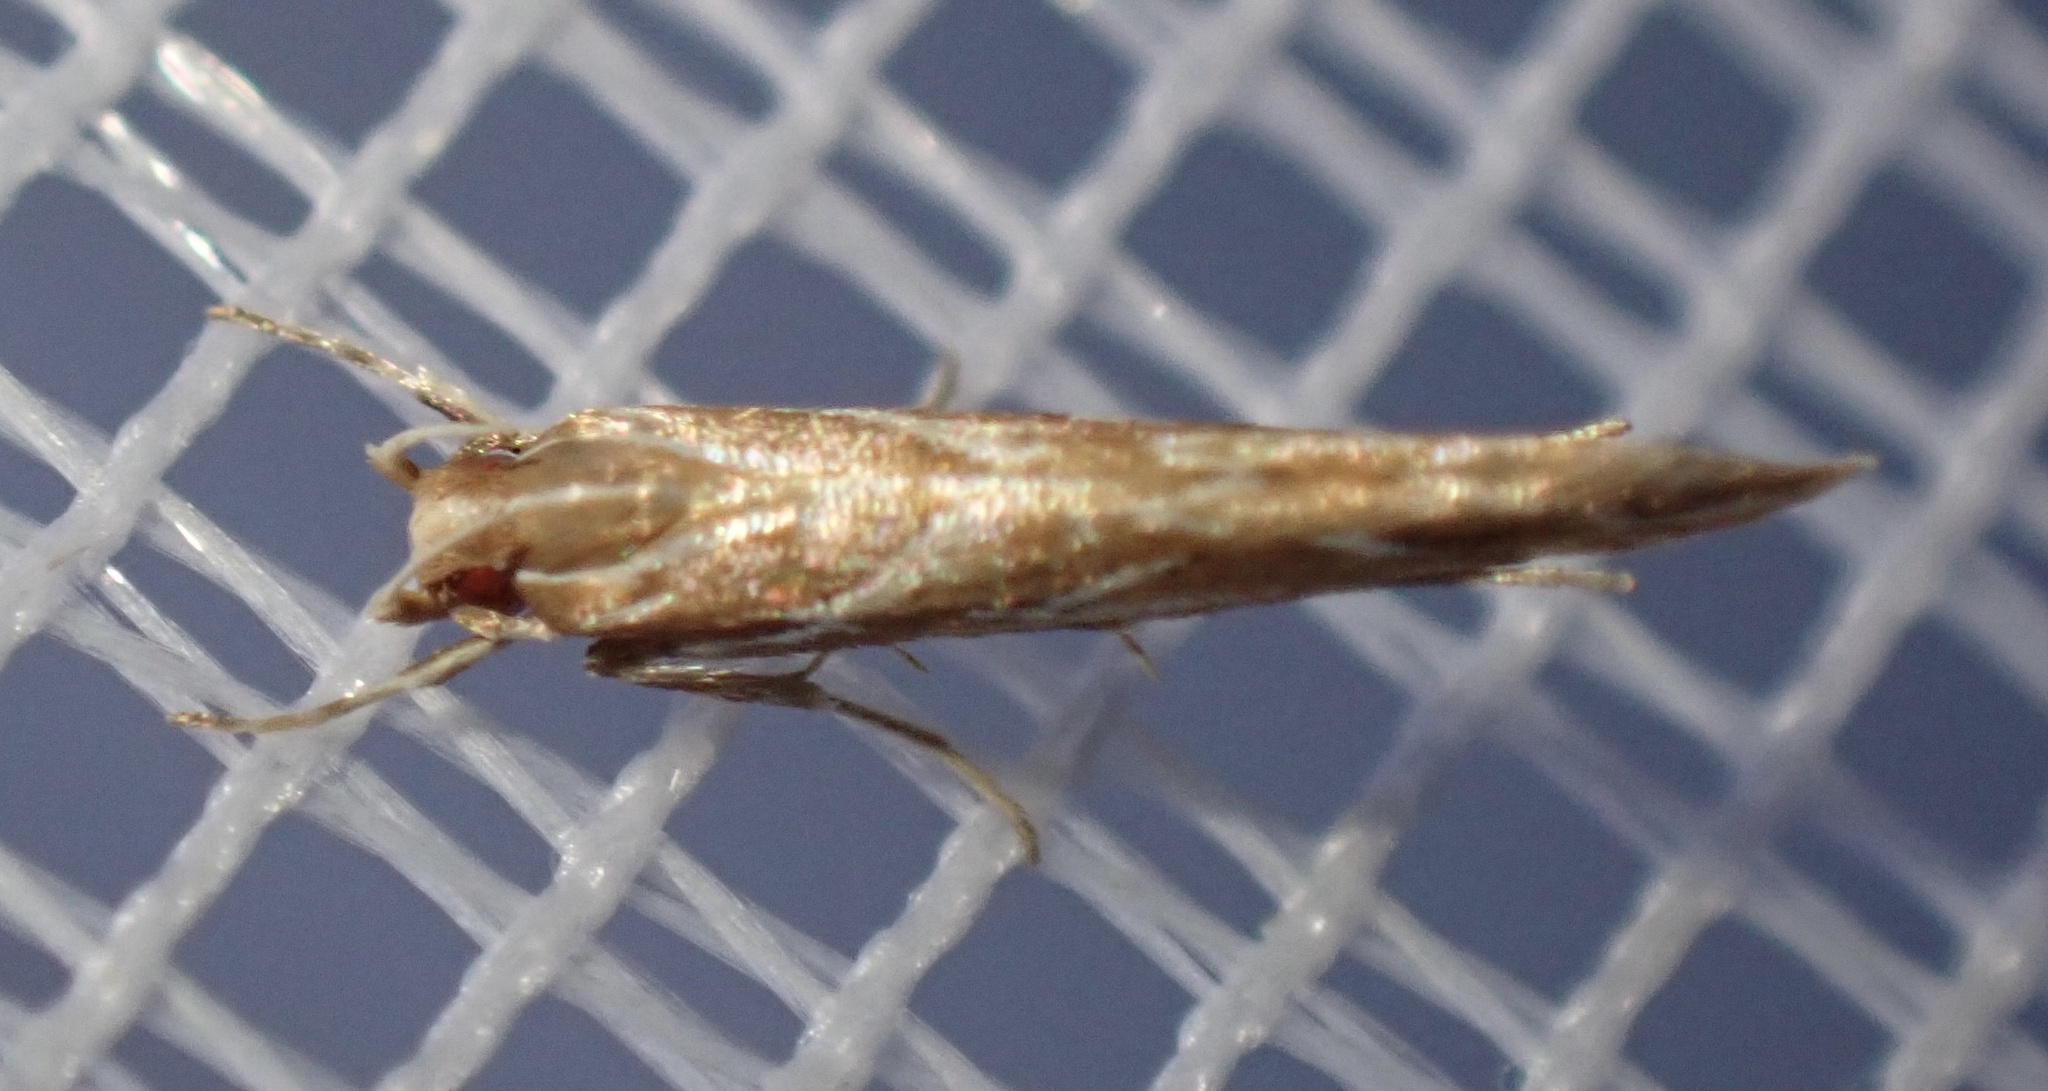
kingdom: Animalia
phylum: Arthropoda
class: Insecta
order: Lepidoptera
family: Cosmopterigidae
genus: Pyroderces
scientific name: Pyroderces argyrogrammos
